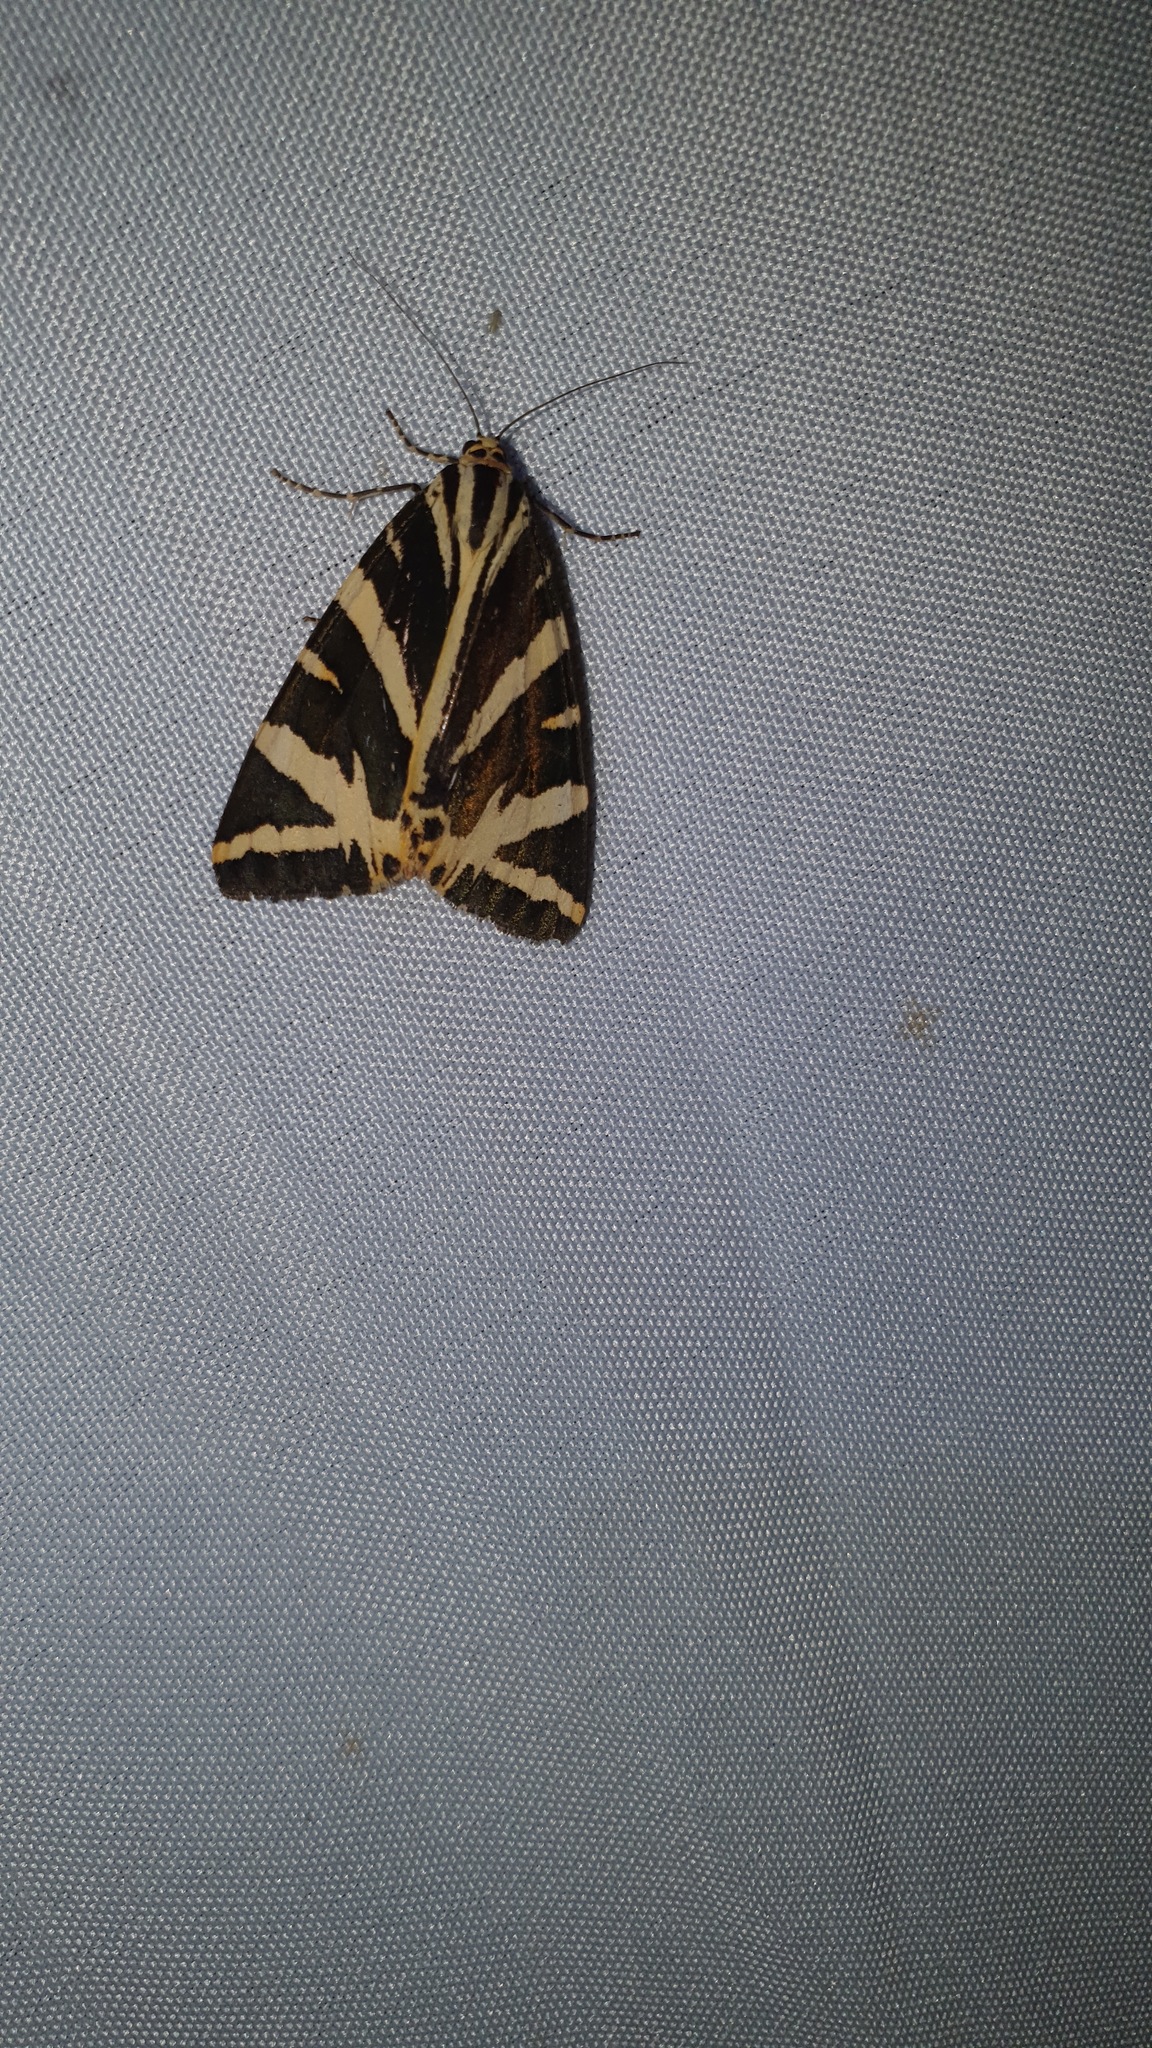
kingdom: Animalia
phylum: Arthropoda
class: Insecta
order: Lepidoptera
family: Erebidae
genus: Euplagia
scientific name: Euplagia quadripunctaria
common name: Jersey tiger
